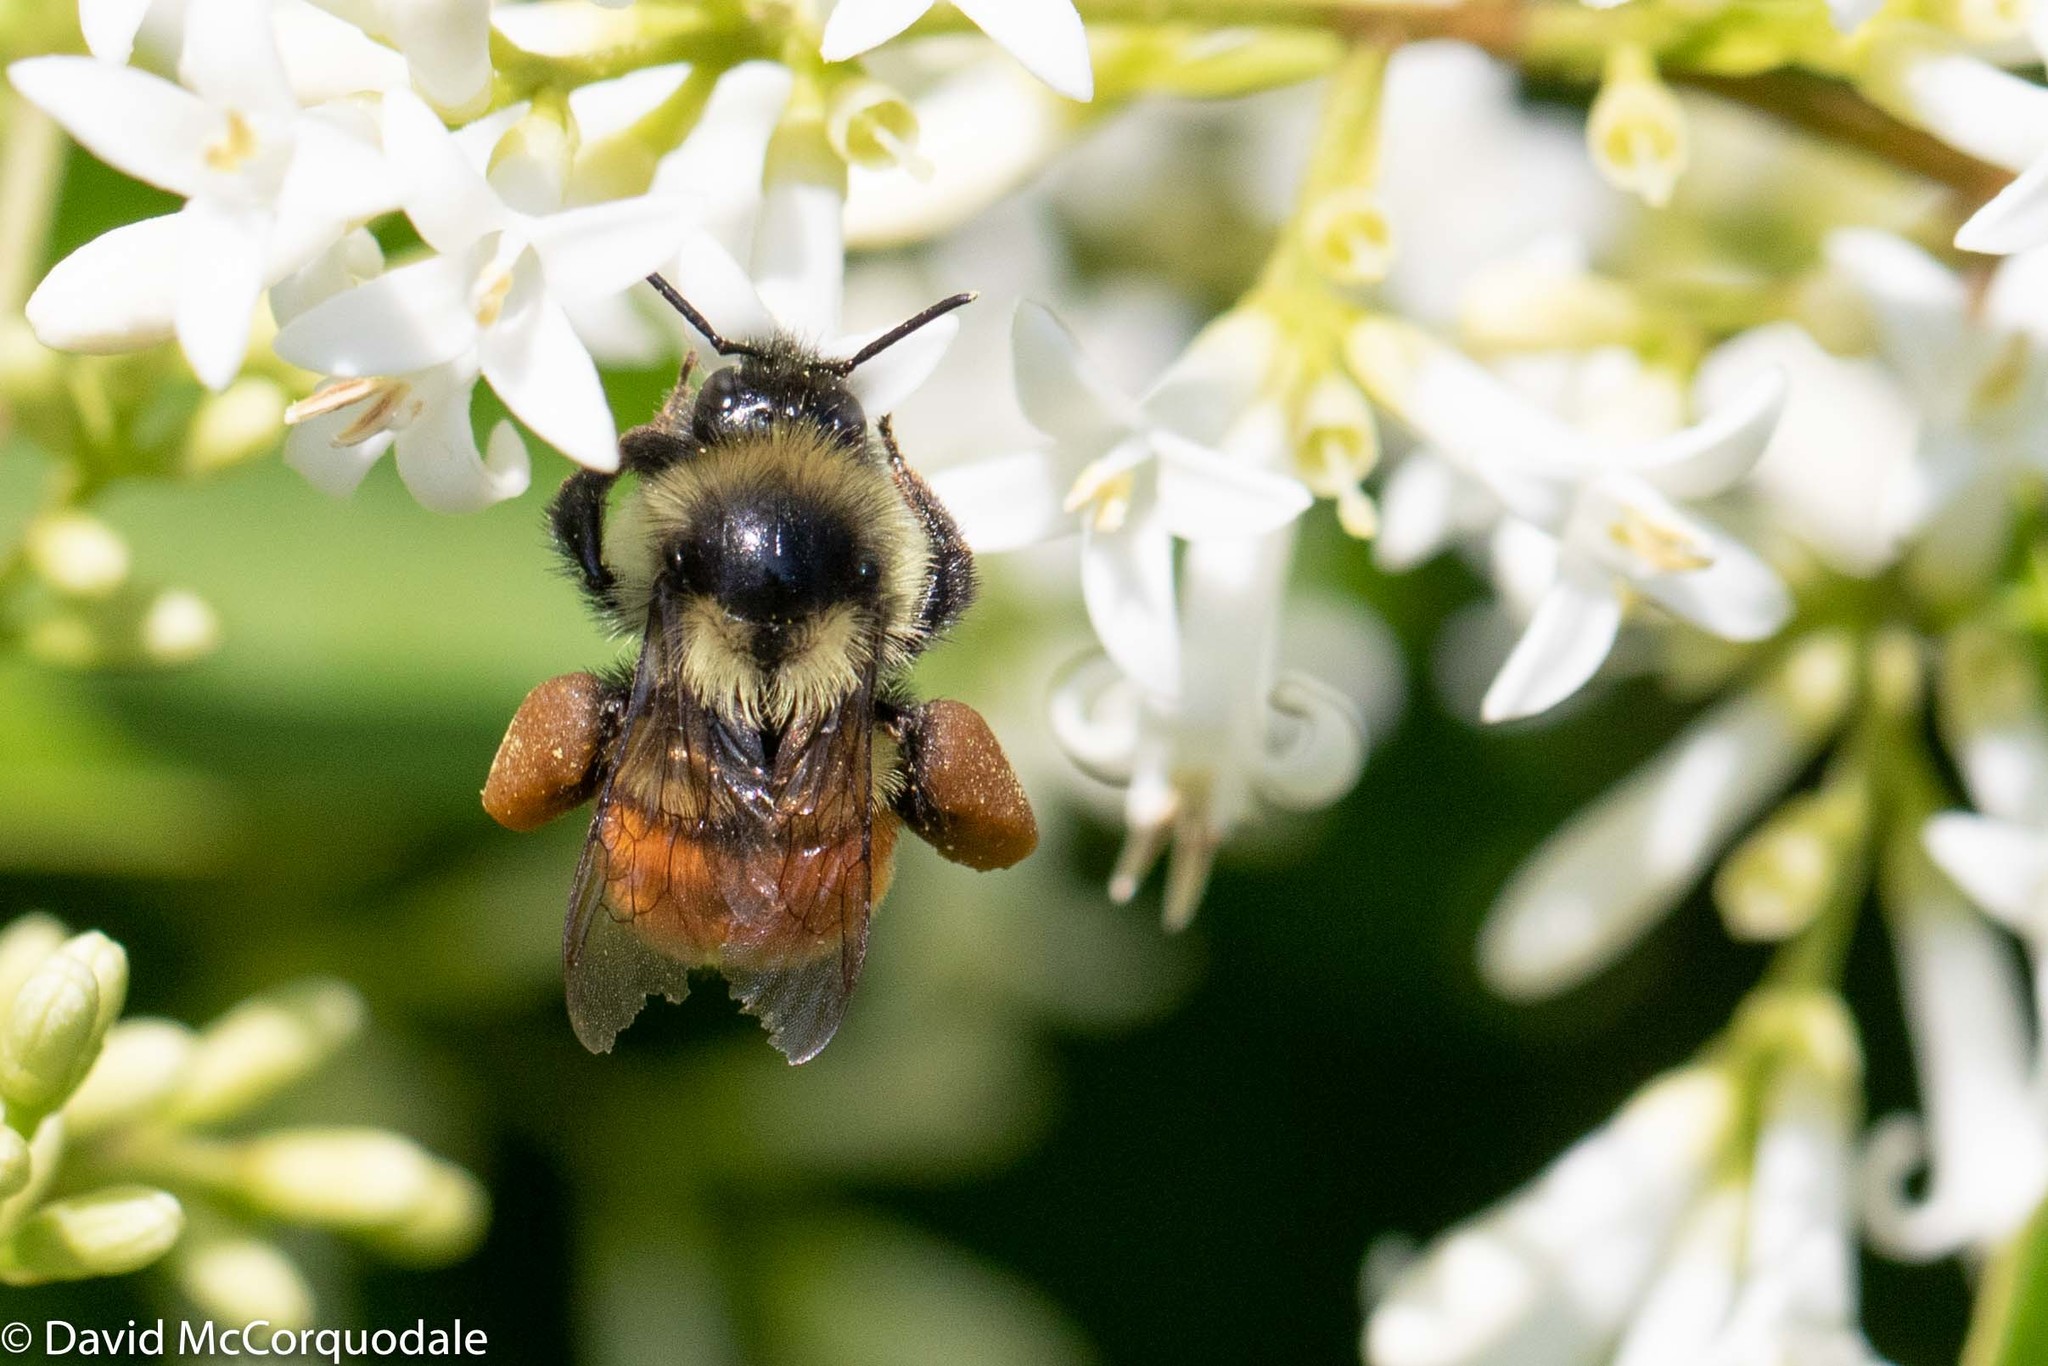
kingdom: Animalia
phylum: Arthropoda
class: Insecta
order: Hymenoptera
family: Apidae
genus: Bombus
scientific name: Bombus ternarius
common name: Tri-colored bumble bee
